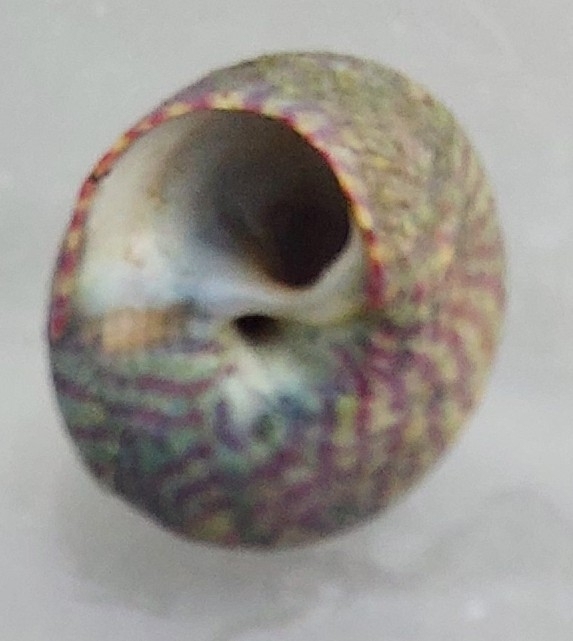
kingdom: Animalia
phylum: Mollusca
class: Gastropoda
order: Trochida
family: Trochidae
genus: Steromphala
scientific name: Steromphala umbilicalis
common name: Flat top shell
